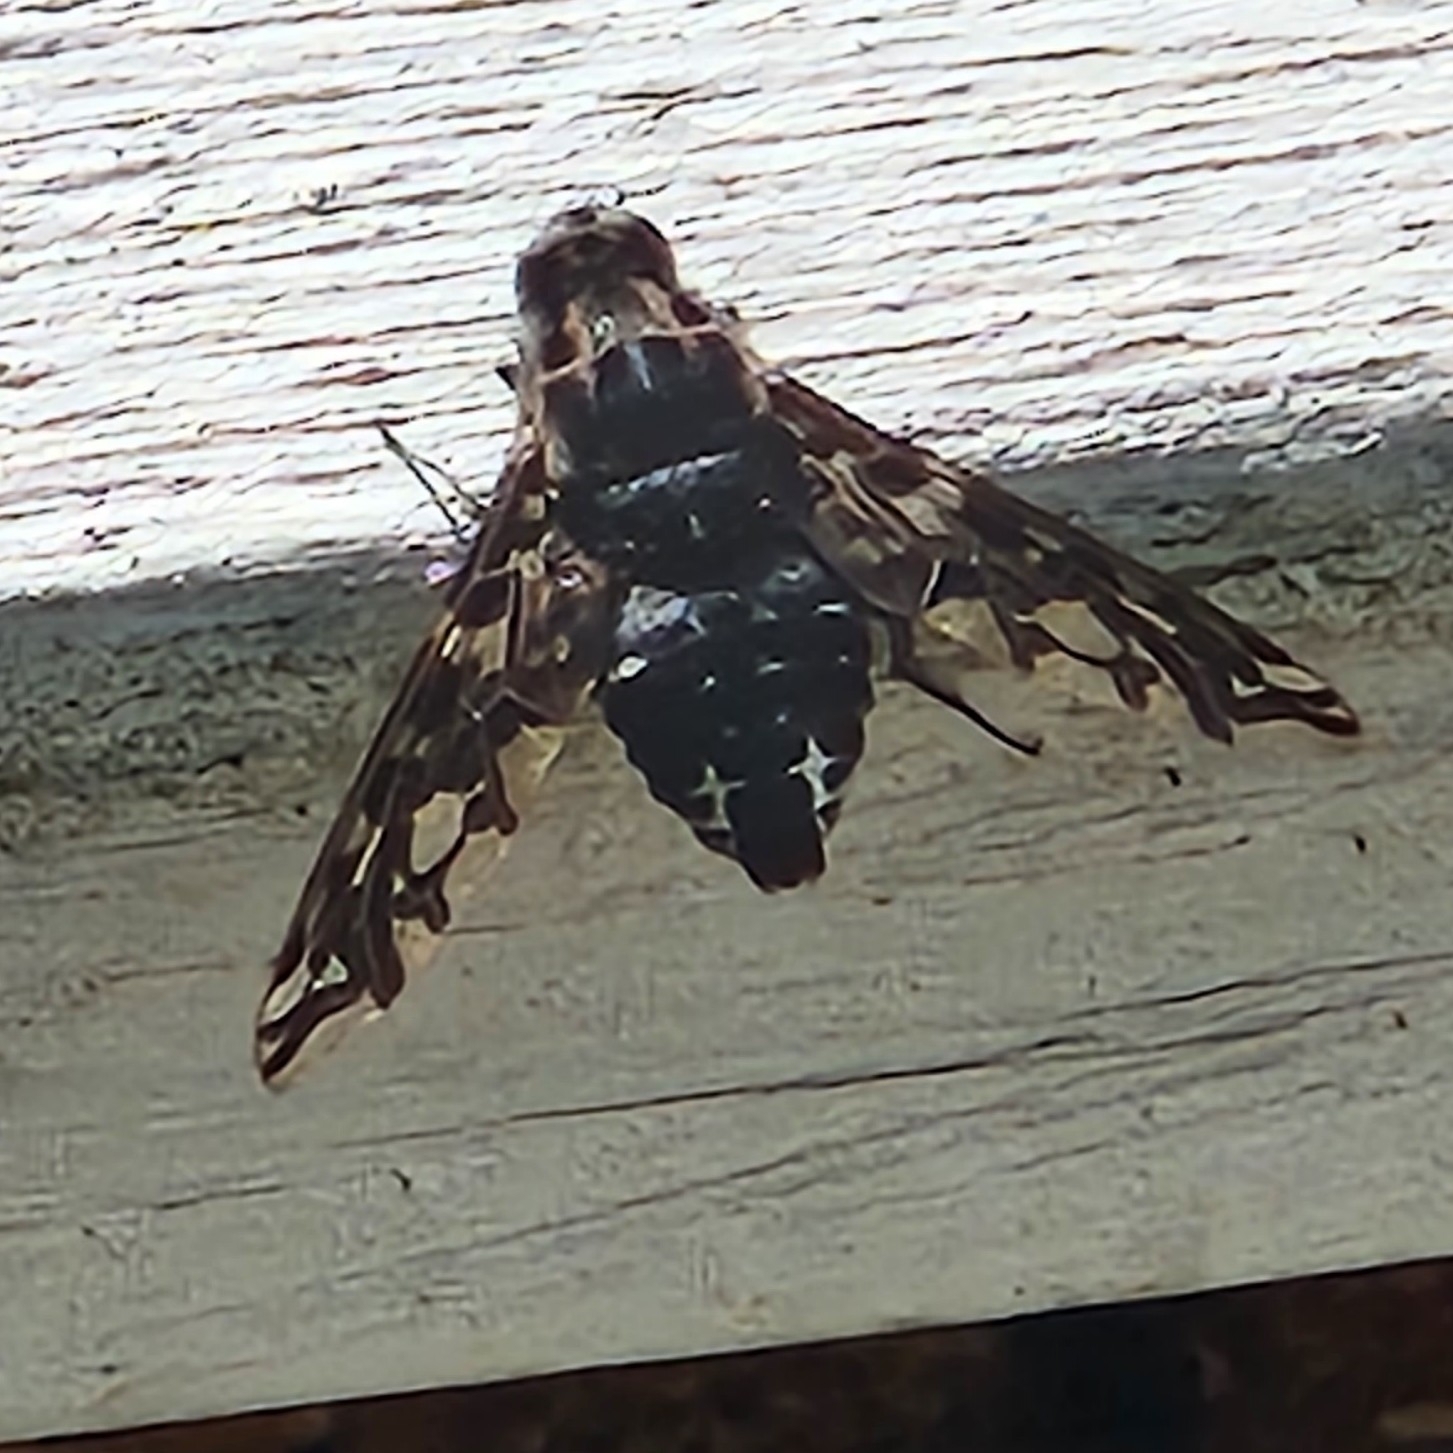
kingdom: Animalia
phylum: Arthropoda
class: Insecta
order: Diptera
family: Bombyliidae
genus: Xenox
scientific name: Xenox tigrinus
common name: Tiger bee fly
